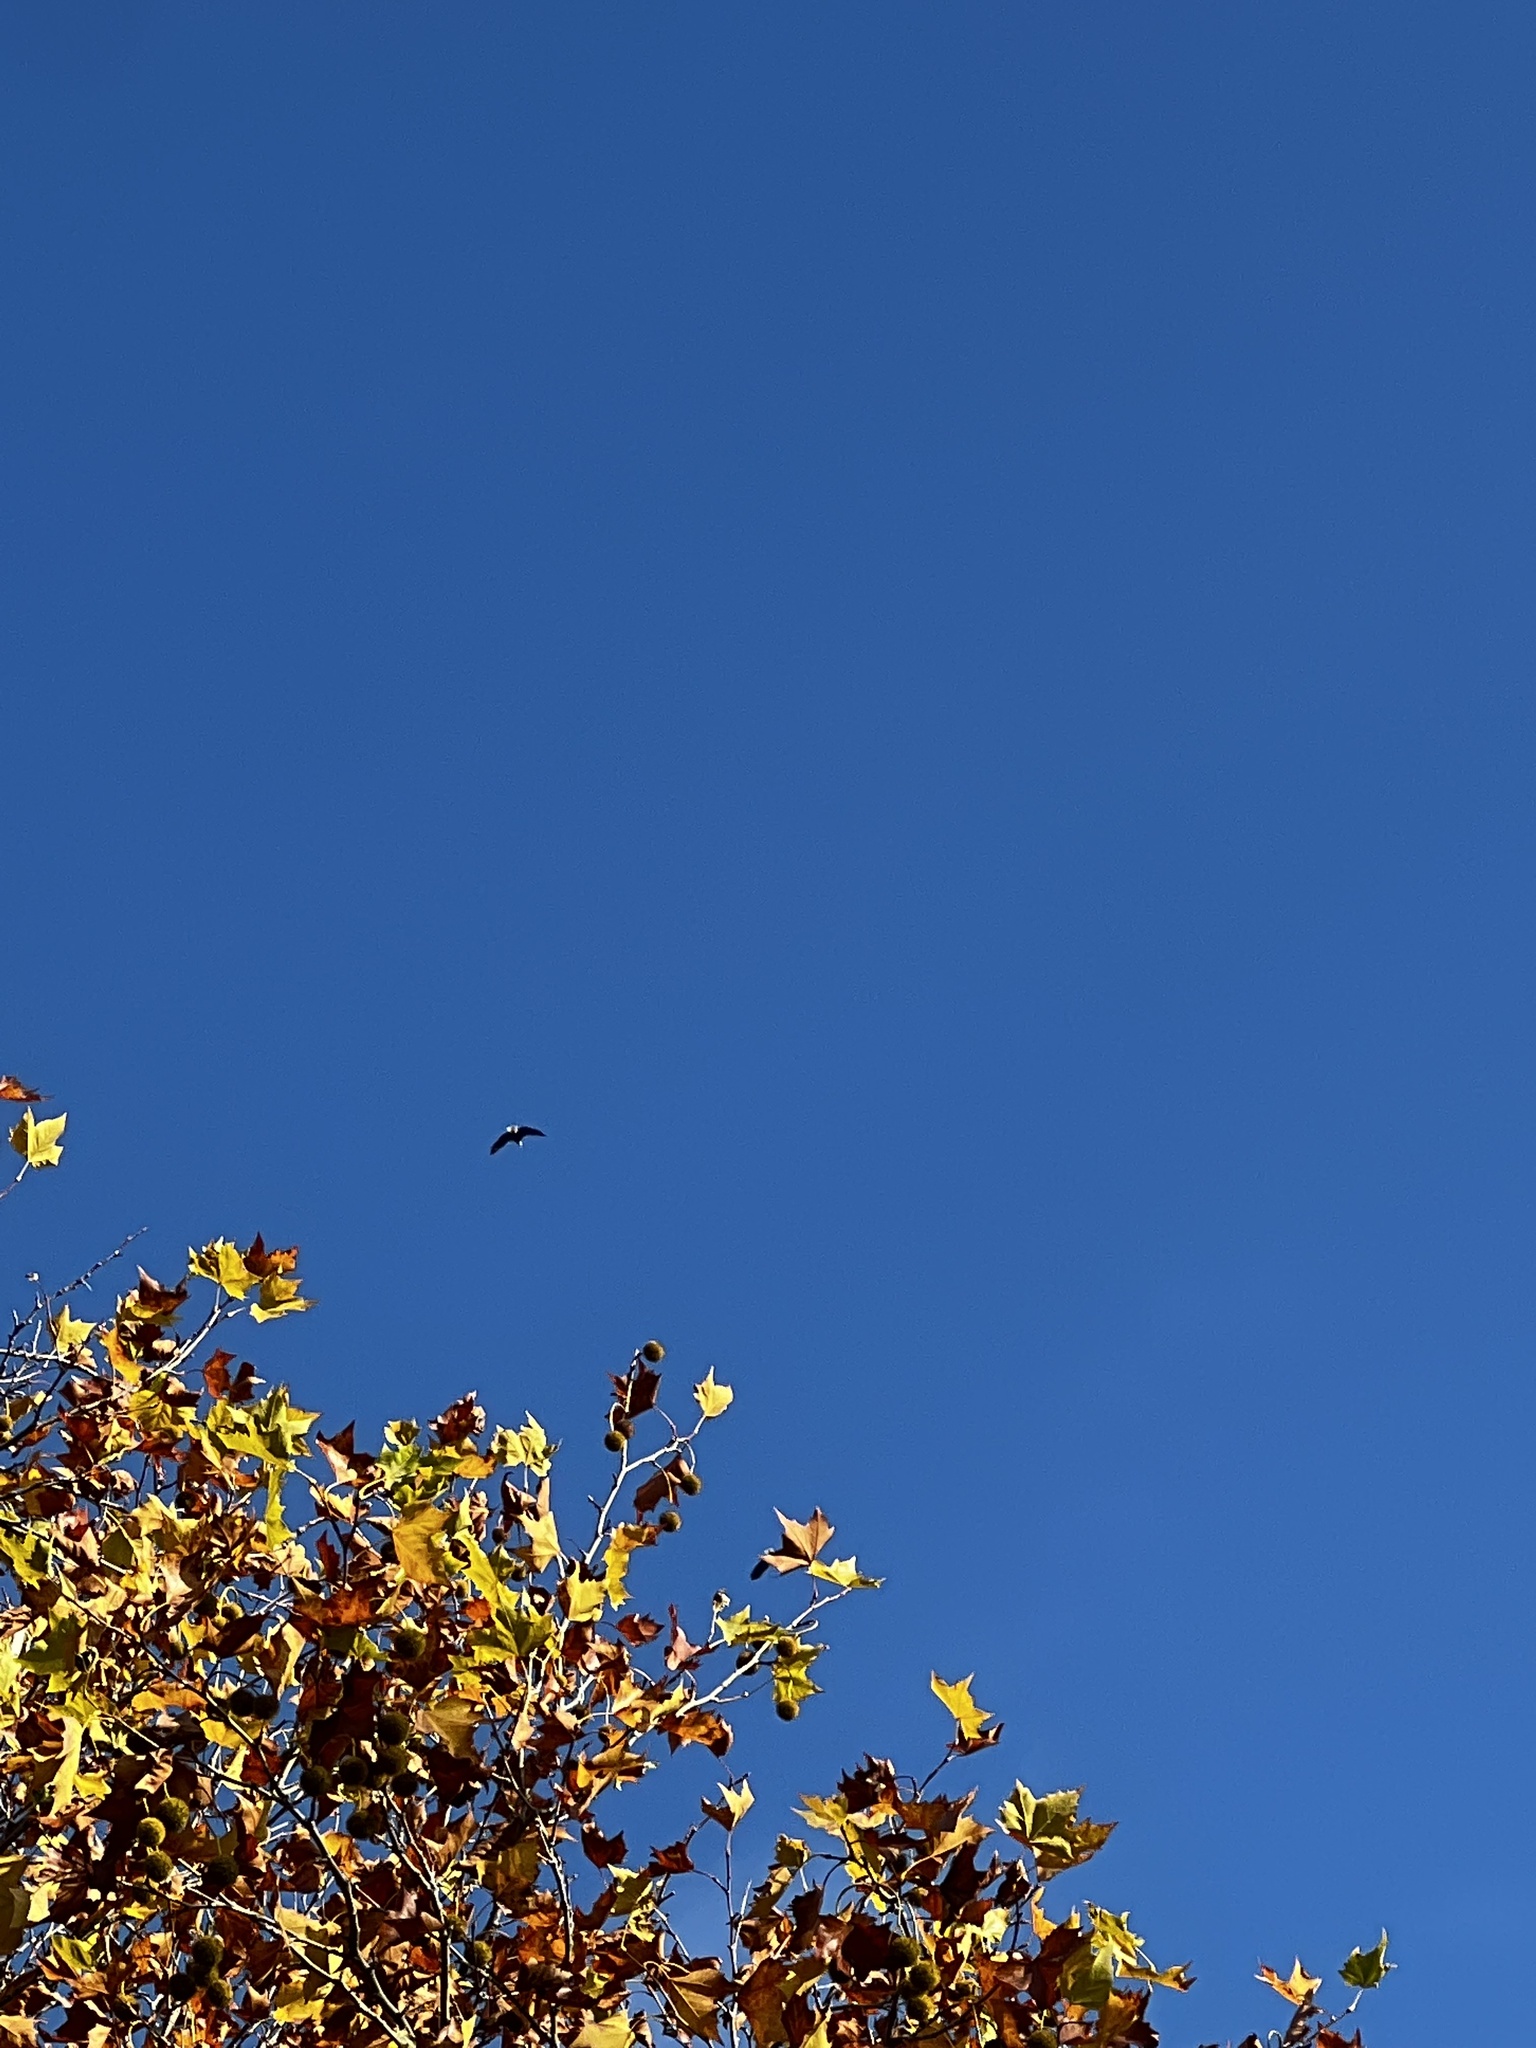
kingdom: Animalia
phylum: Chordata
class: Aves
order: Accipitriformes
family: Accipitridae
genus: Haliaeetus
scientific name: Haliaeetus leucocephalus
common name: Bald eagle
